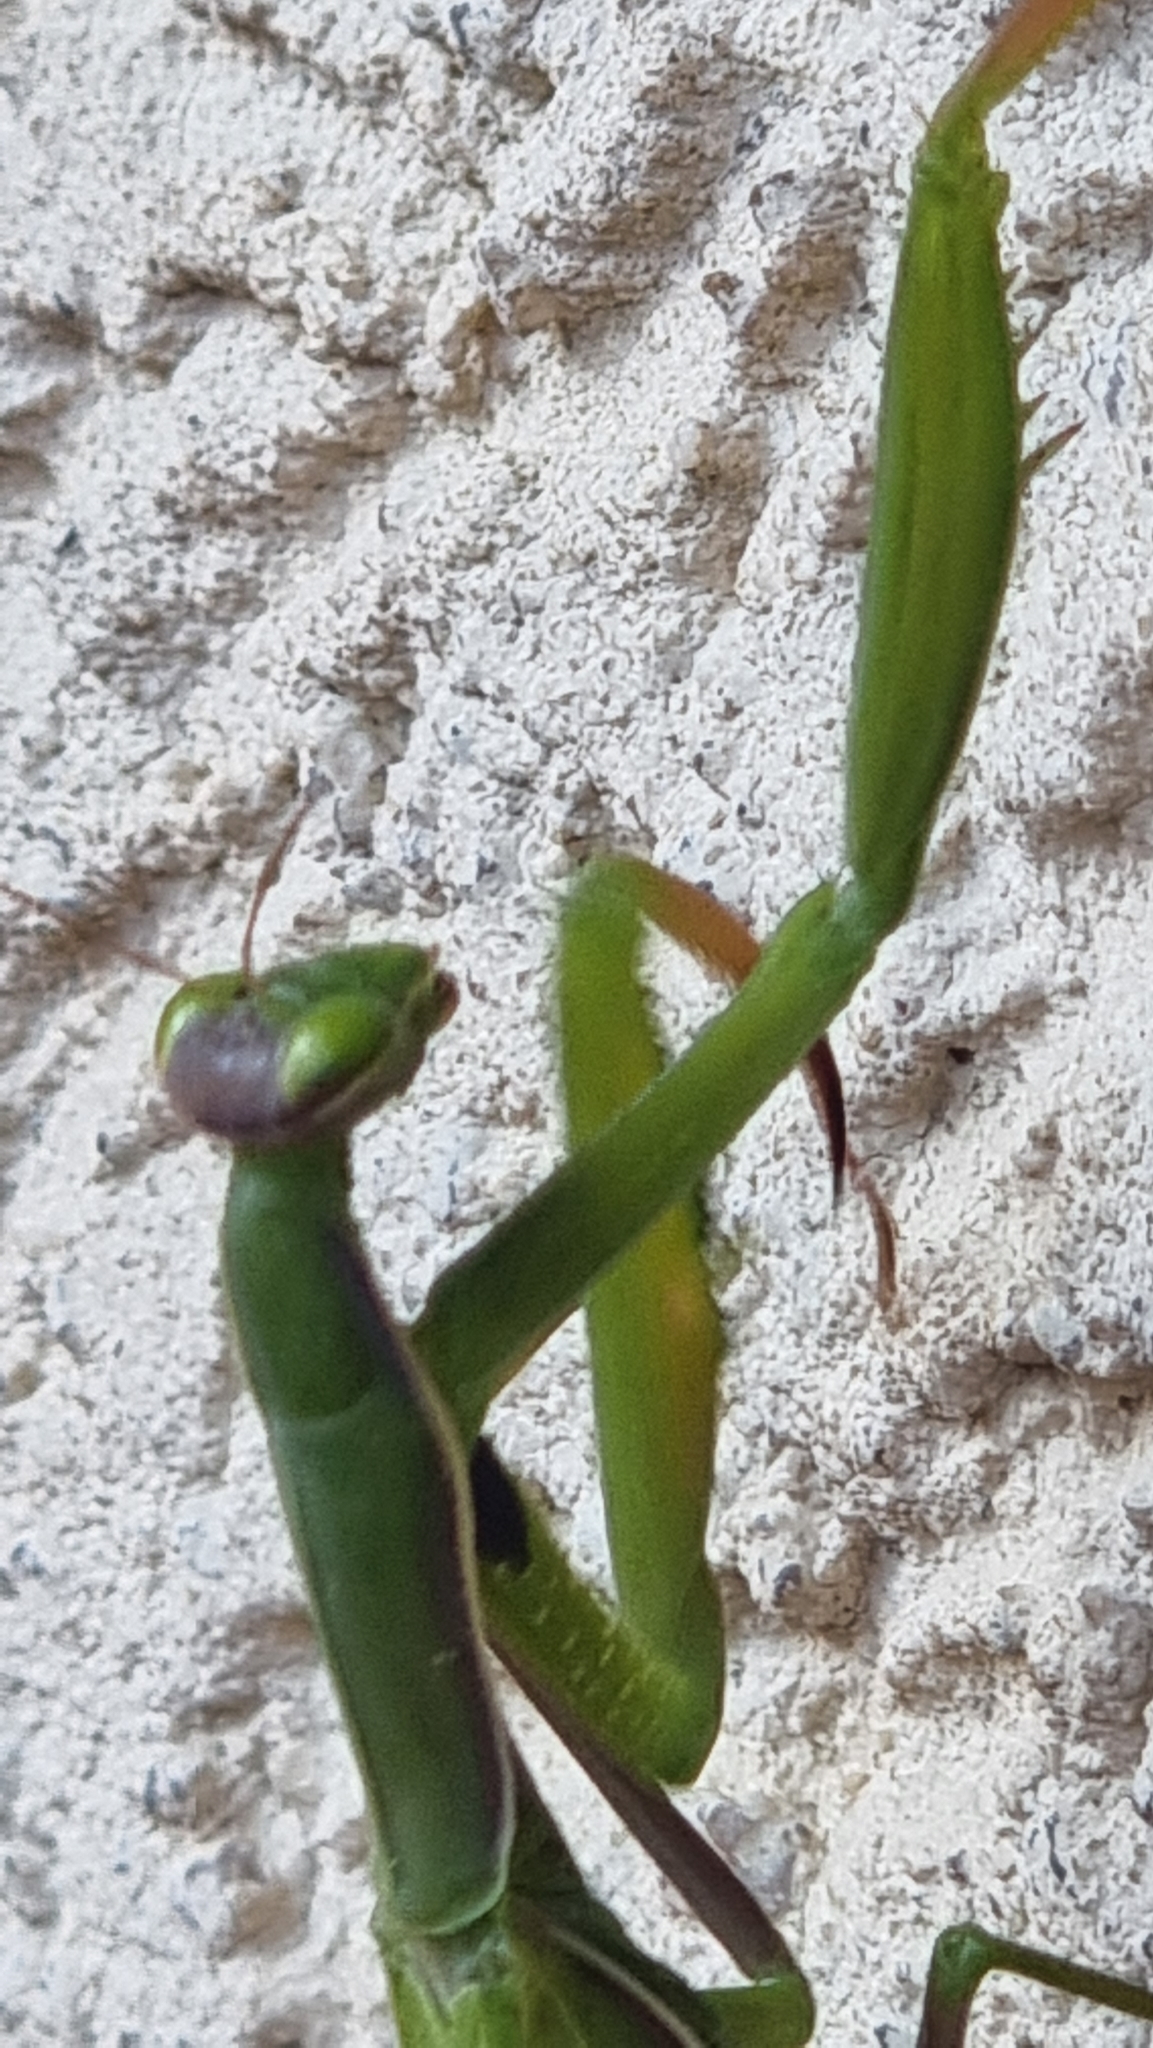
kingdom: Animalia
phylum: Arthropoda
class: Insecta
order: Mantodea
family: Mantidae
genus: Mantis
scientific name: Mantis religiosa
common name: Praying mantis
